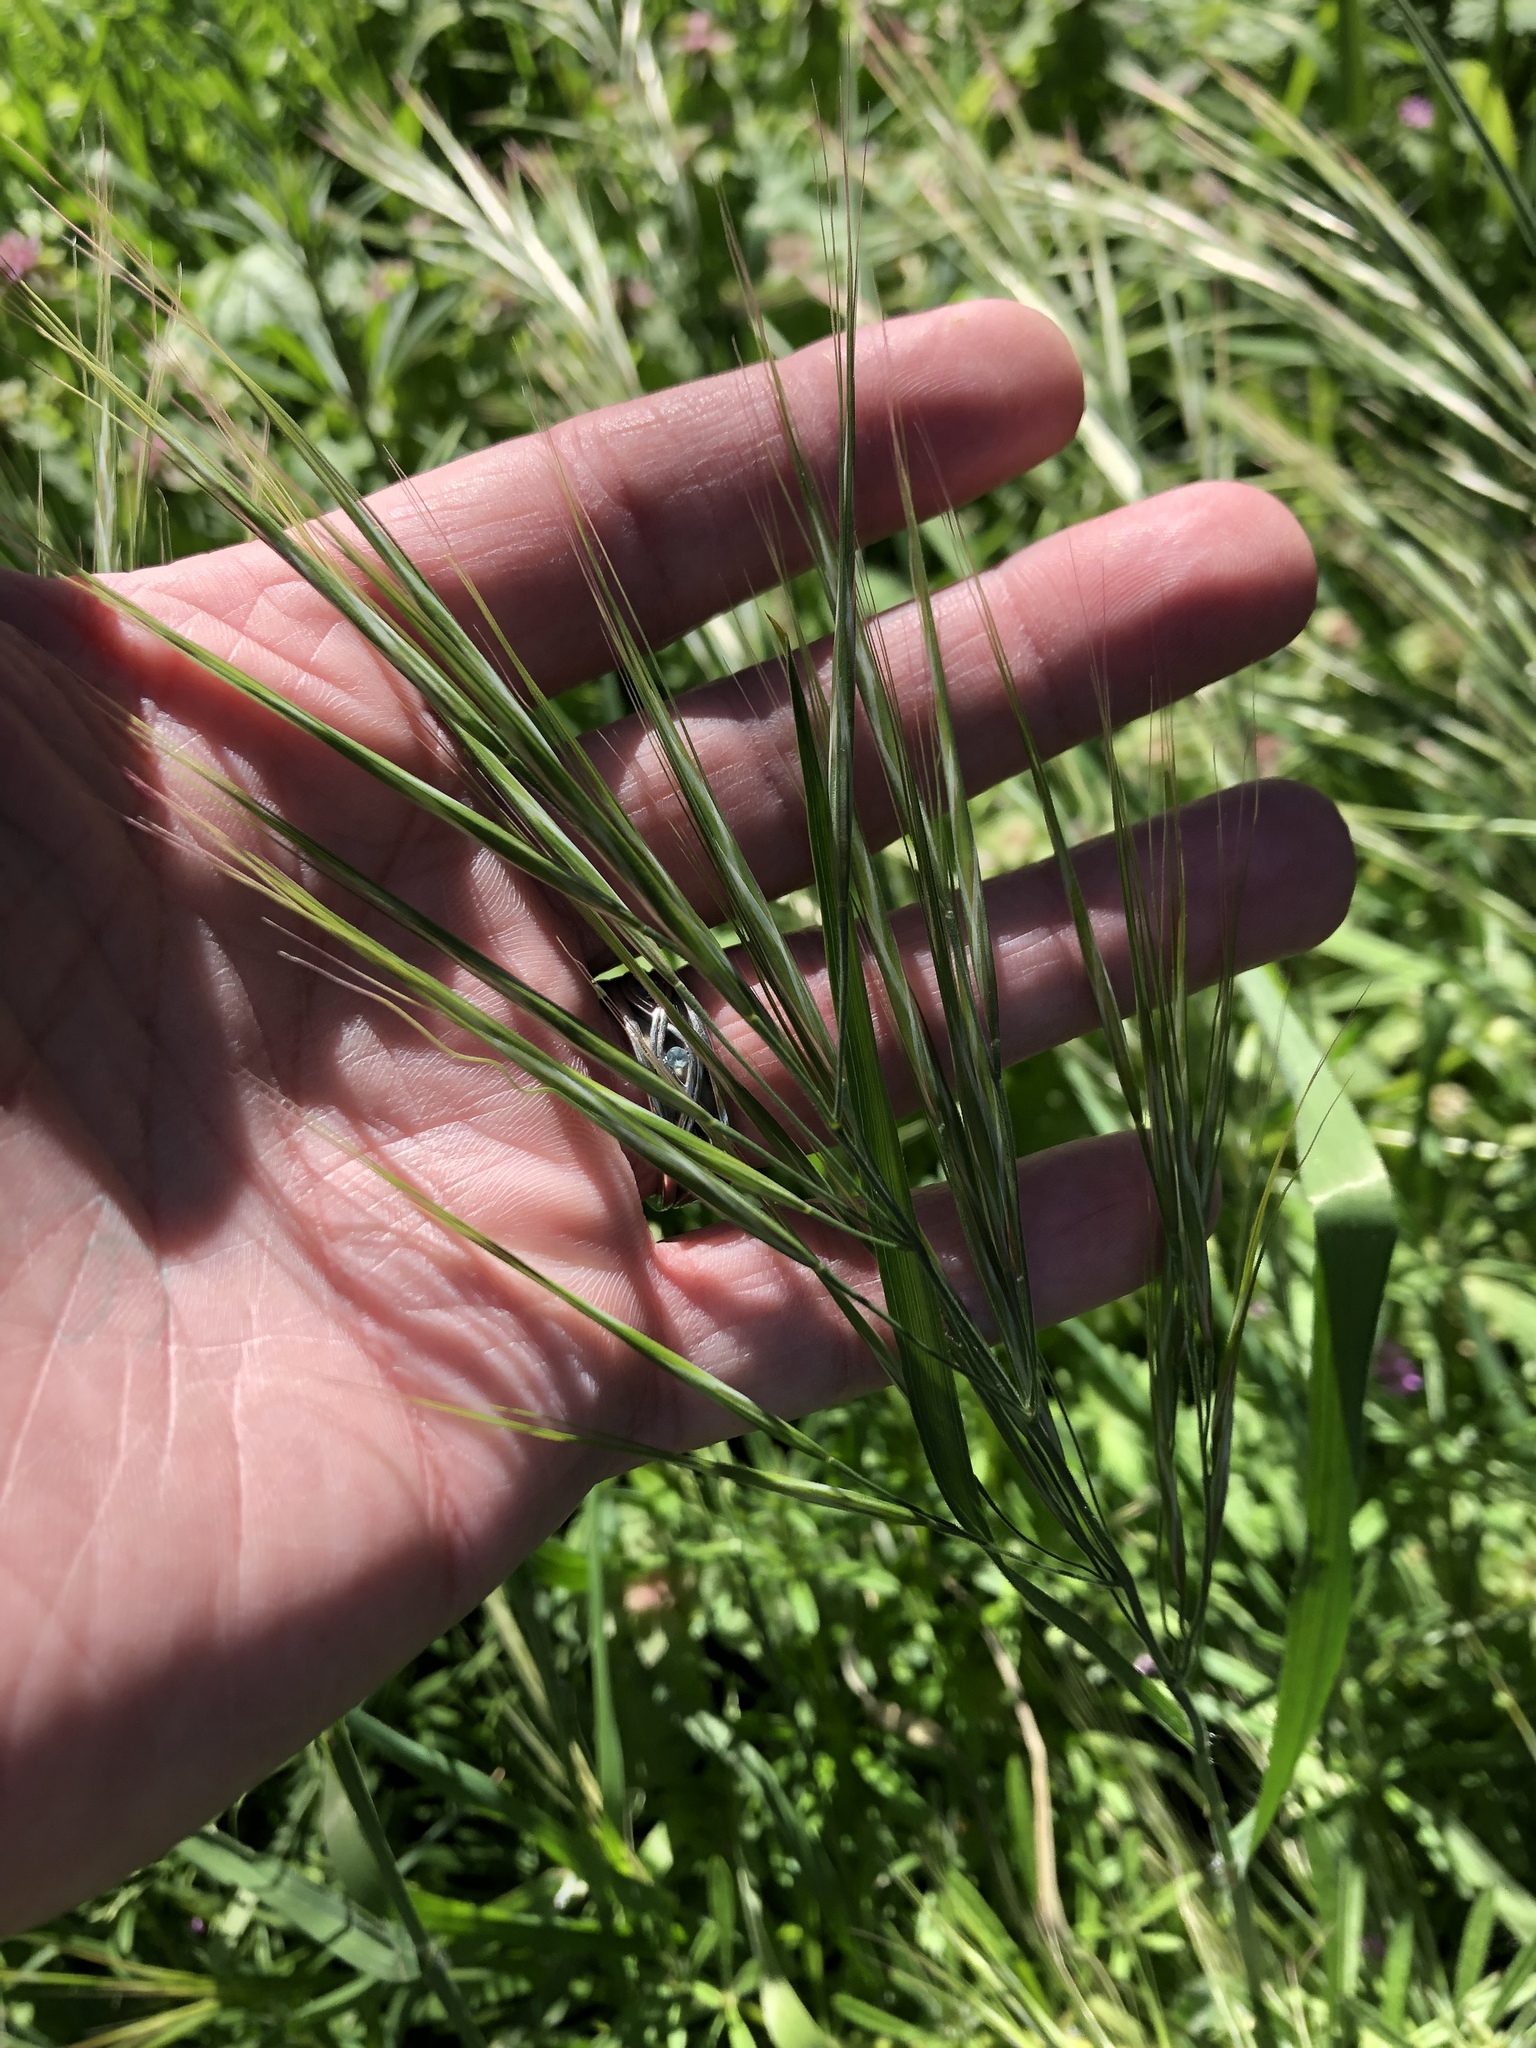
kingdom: Plantae
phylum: Tracheophyta
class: Liliopsida
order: Poales
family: Poaceae
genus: Bromus
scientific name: Bromus diandrus
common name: Ripgut brome
